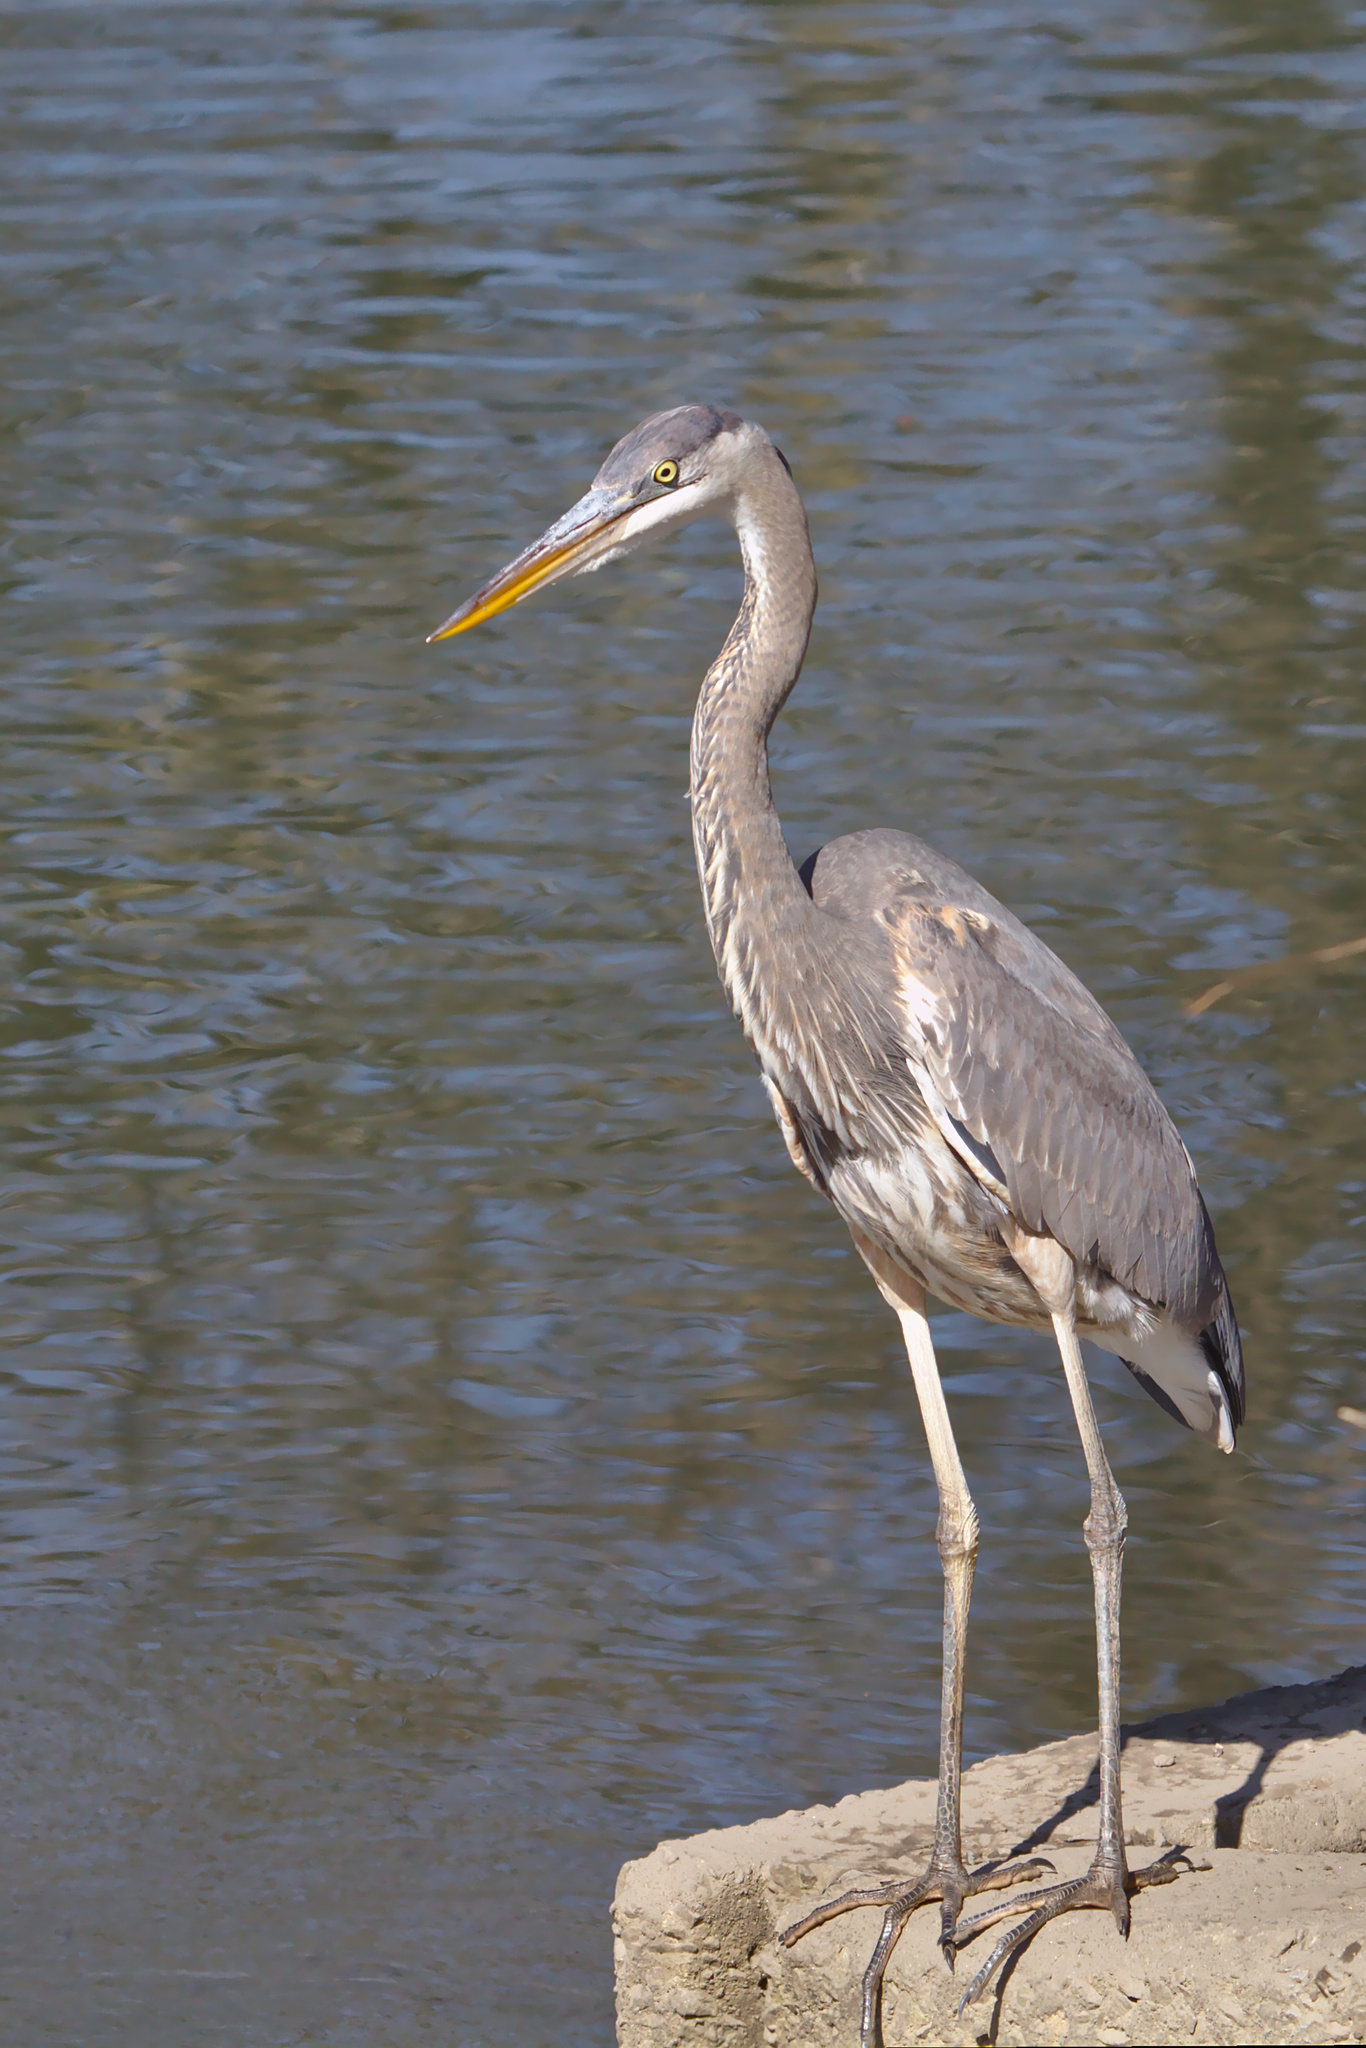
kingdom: Animalia
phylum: Chordata
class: Aves
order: Pelecaniformes
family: Ardeidae
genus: Ardea
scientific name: Ardea herodias
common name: Great blue heron
